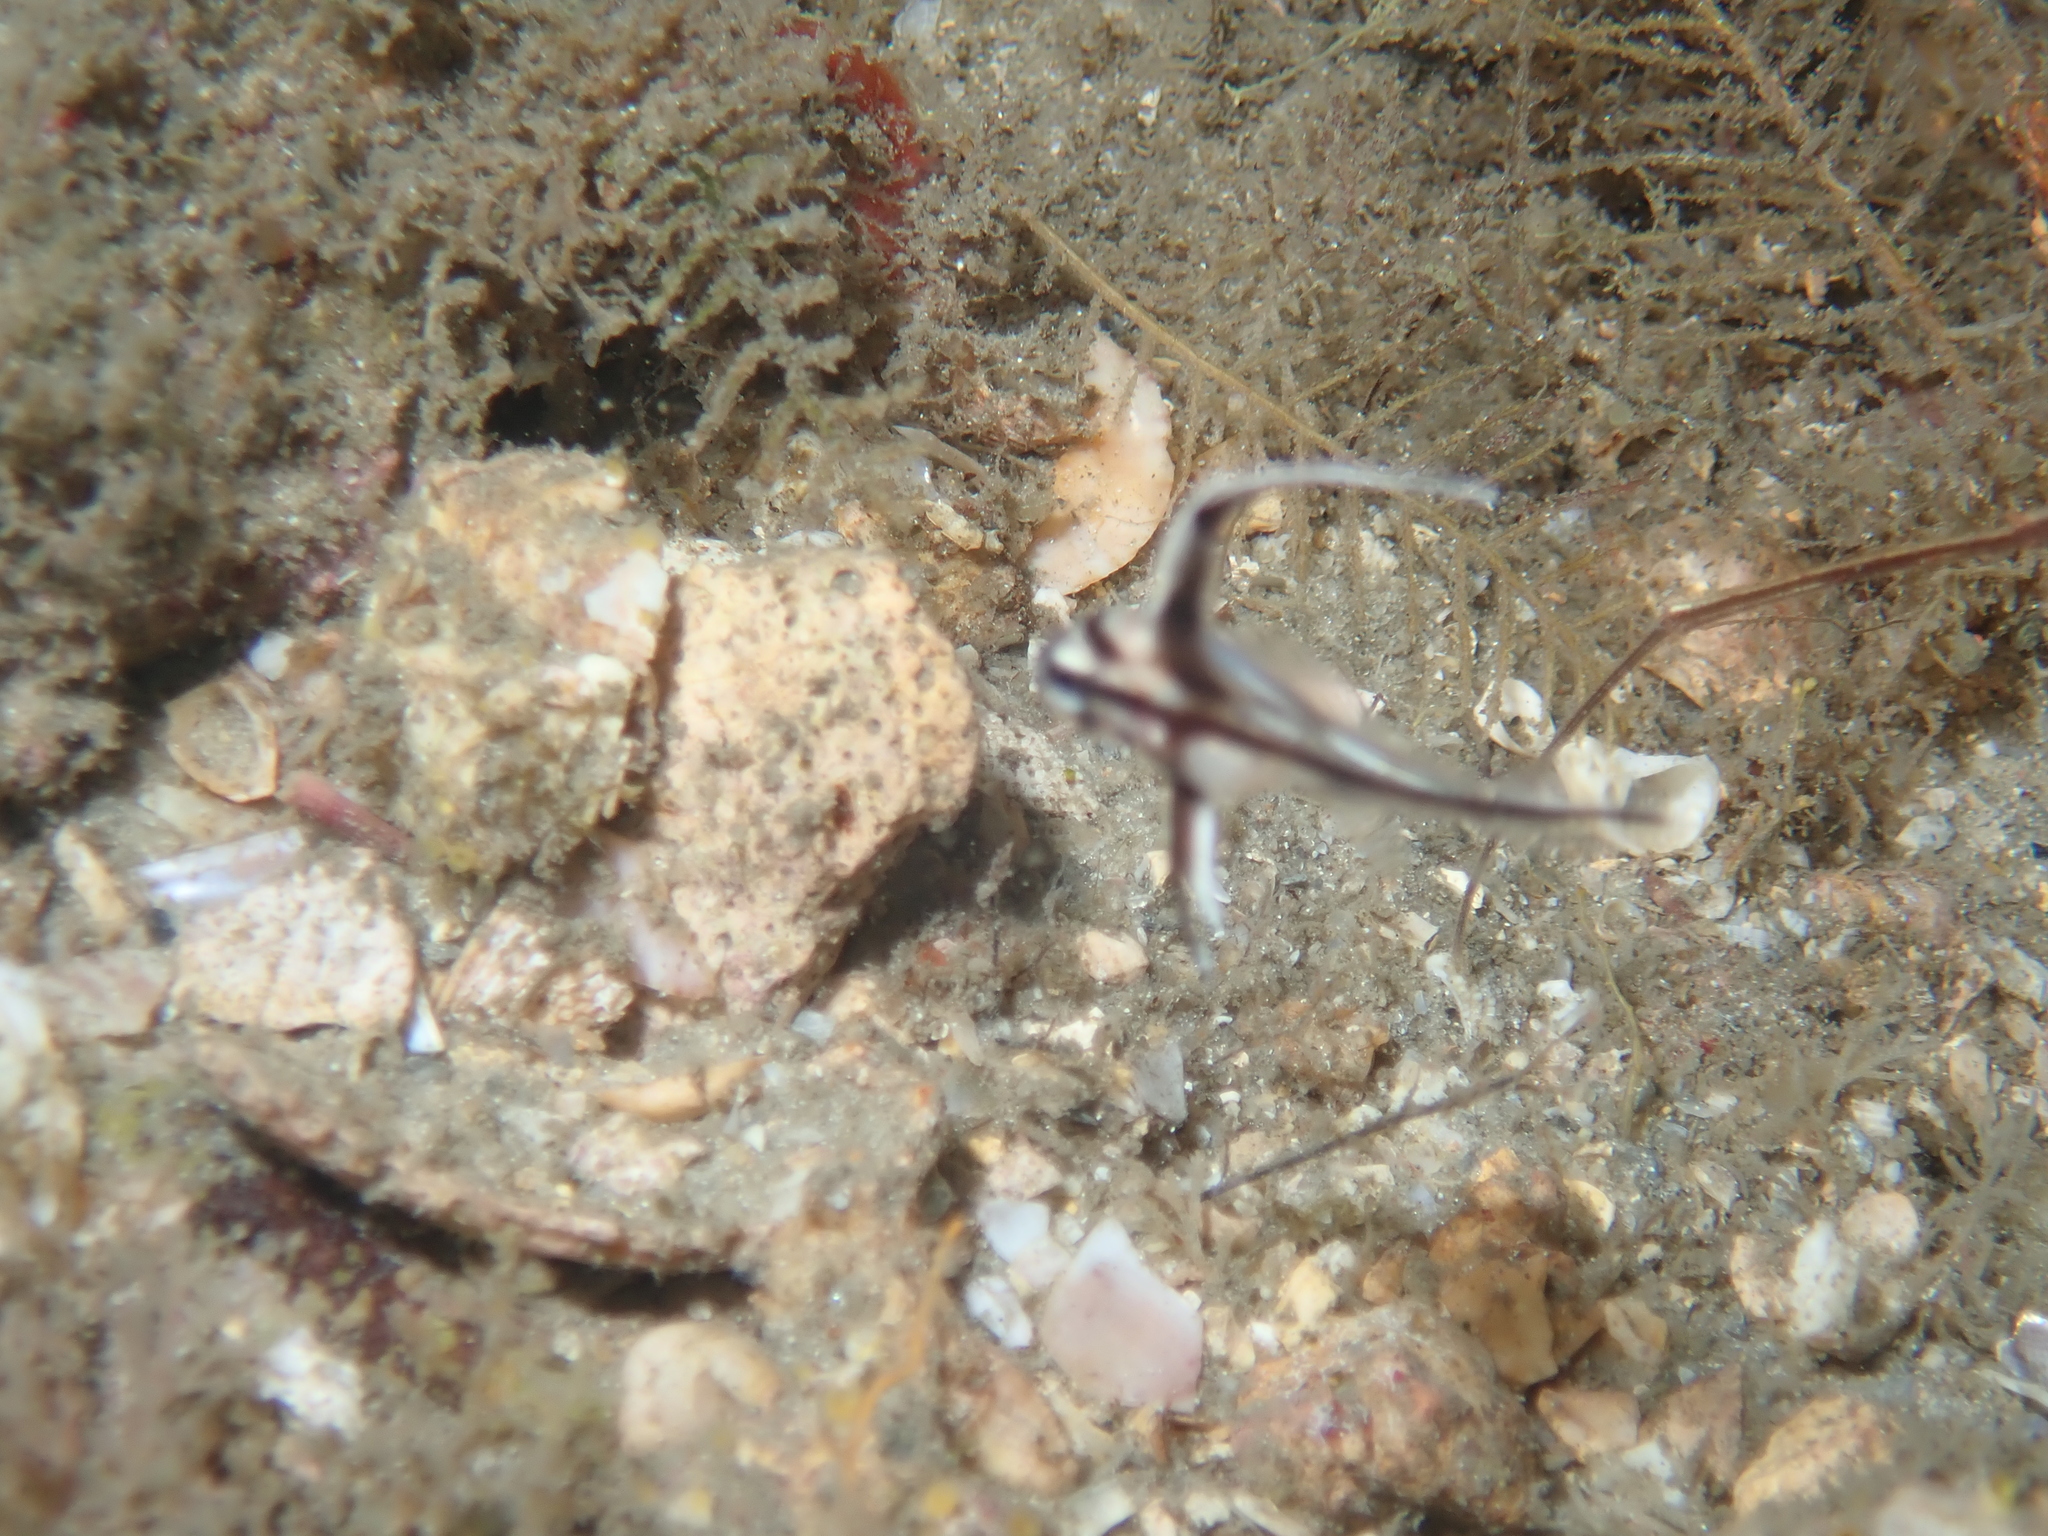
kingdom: Animalia
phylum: Chordata
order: Perciformes
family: Sciaenidae
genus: Pareques
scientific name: Pareques acuminatus
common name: High-hat
